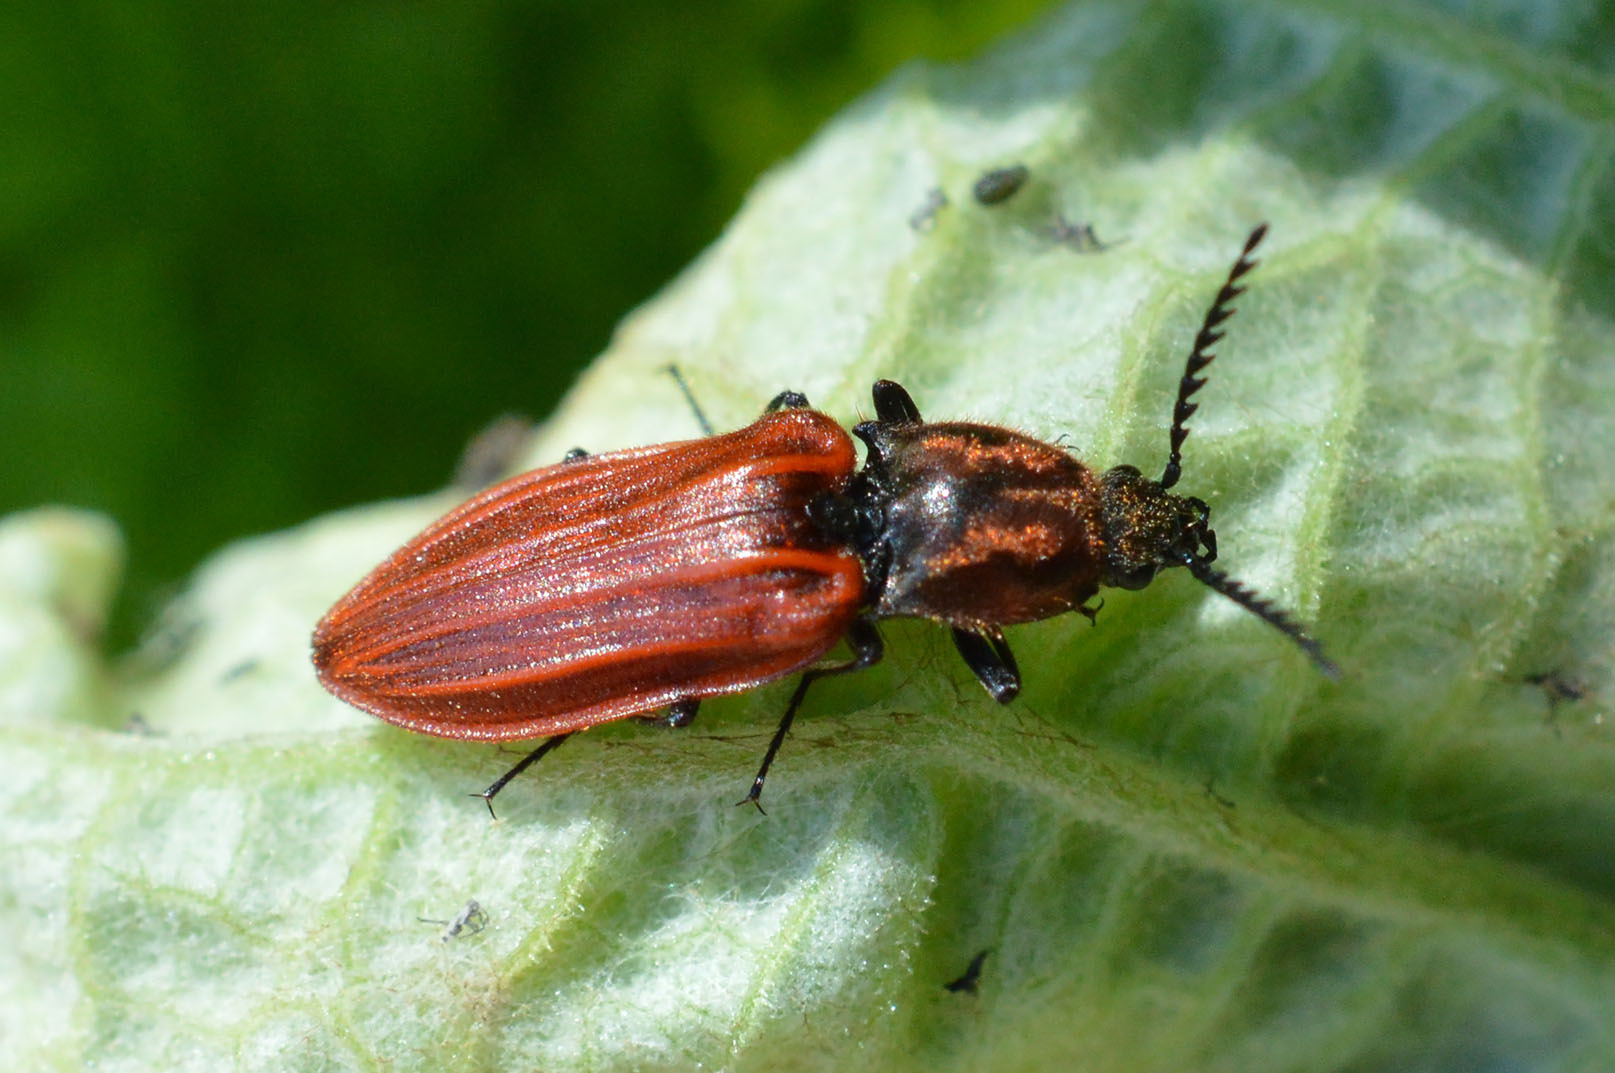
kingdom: Animalia
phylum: Arthropoda
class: Insecta
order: Coleoptera
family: Elateridae
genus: Anostirus
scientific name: Anostirus purpureus
